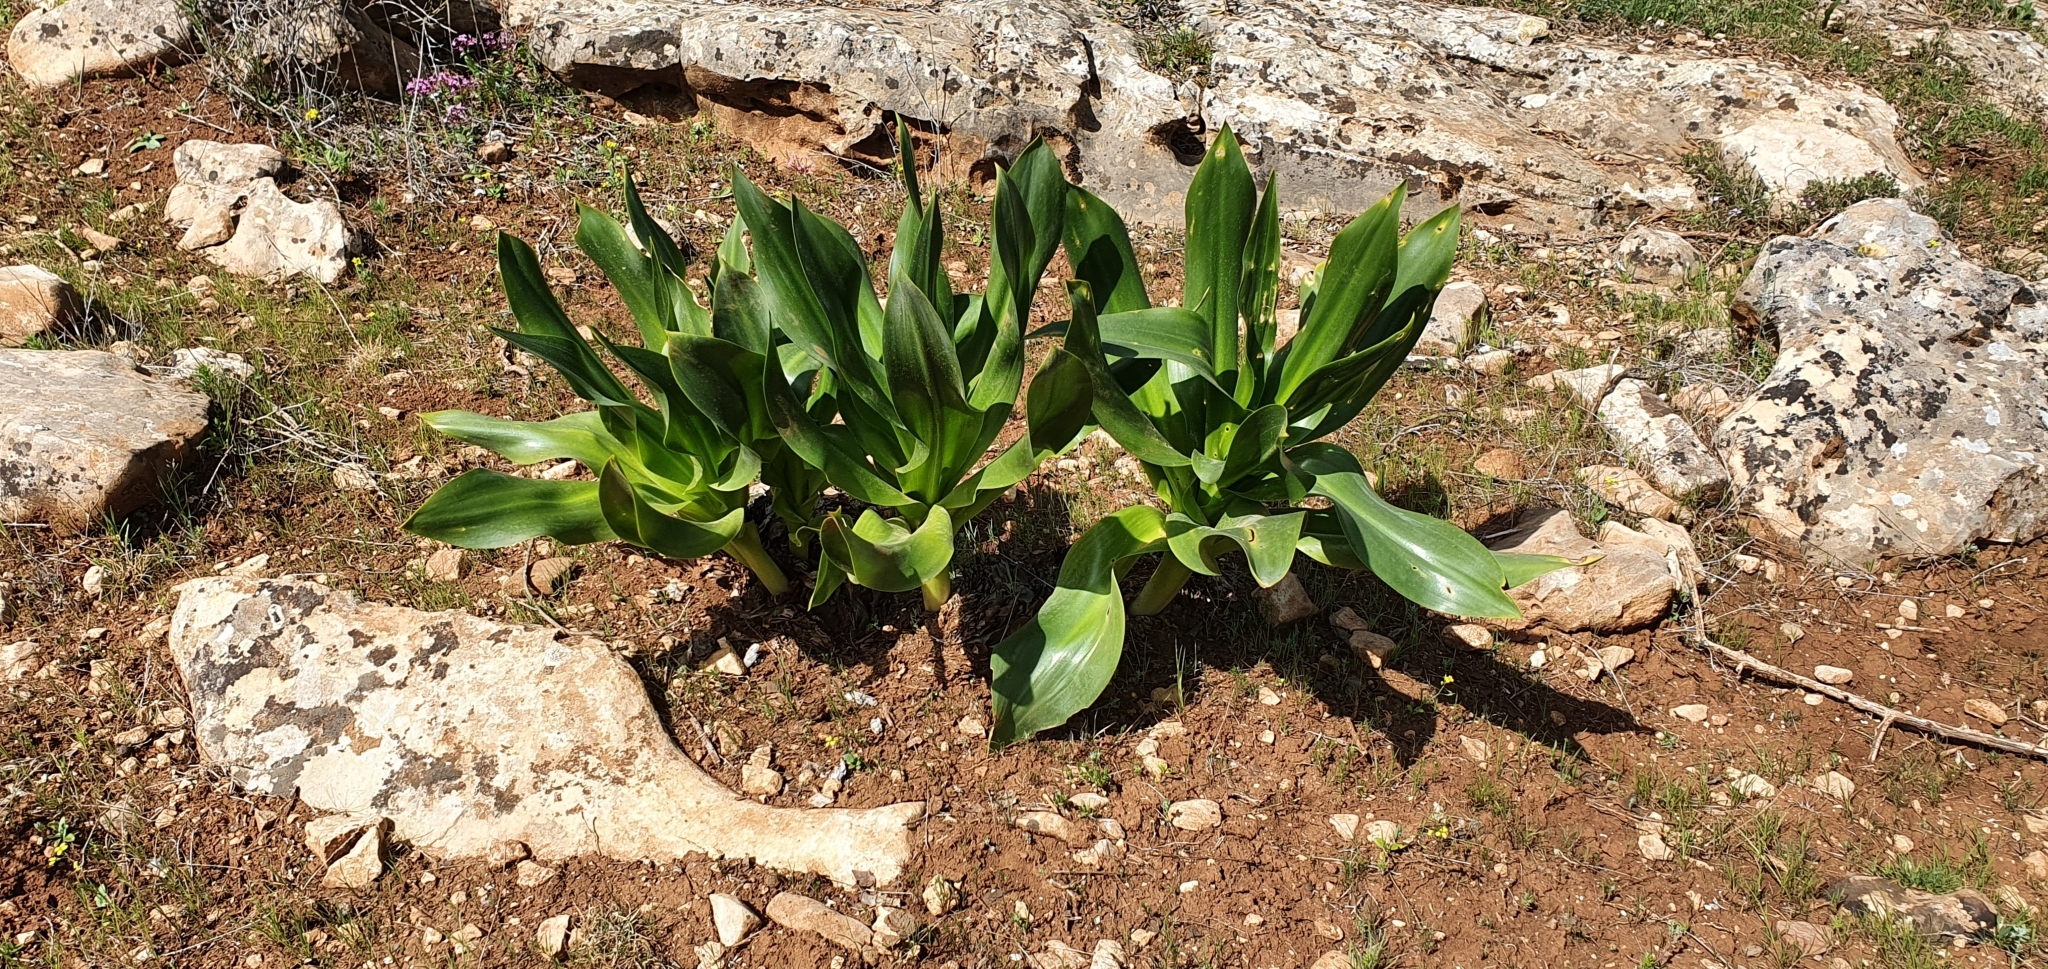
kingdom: Plantae
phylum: Tracheophyta
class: Liliopsida
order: Asparagales
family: Asparagaceae
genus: Drimia
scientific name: Drimia numidica
